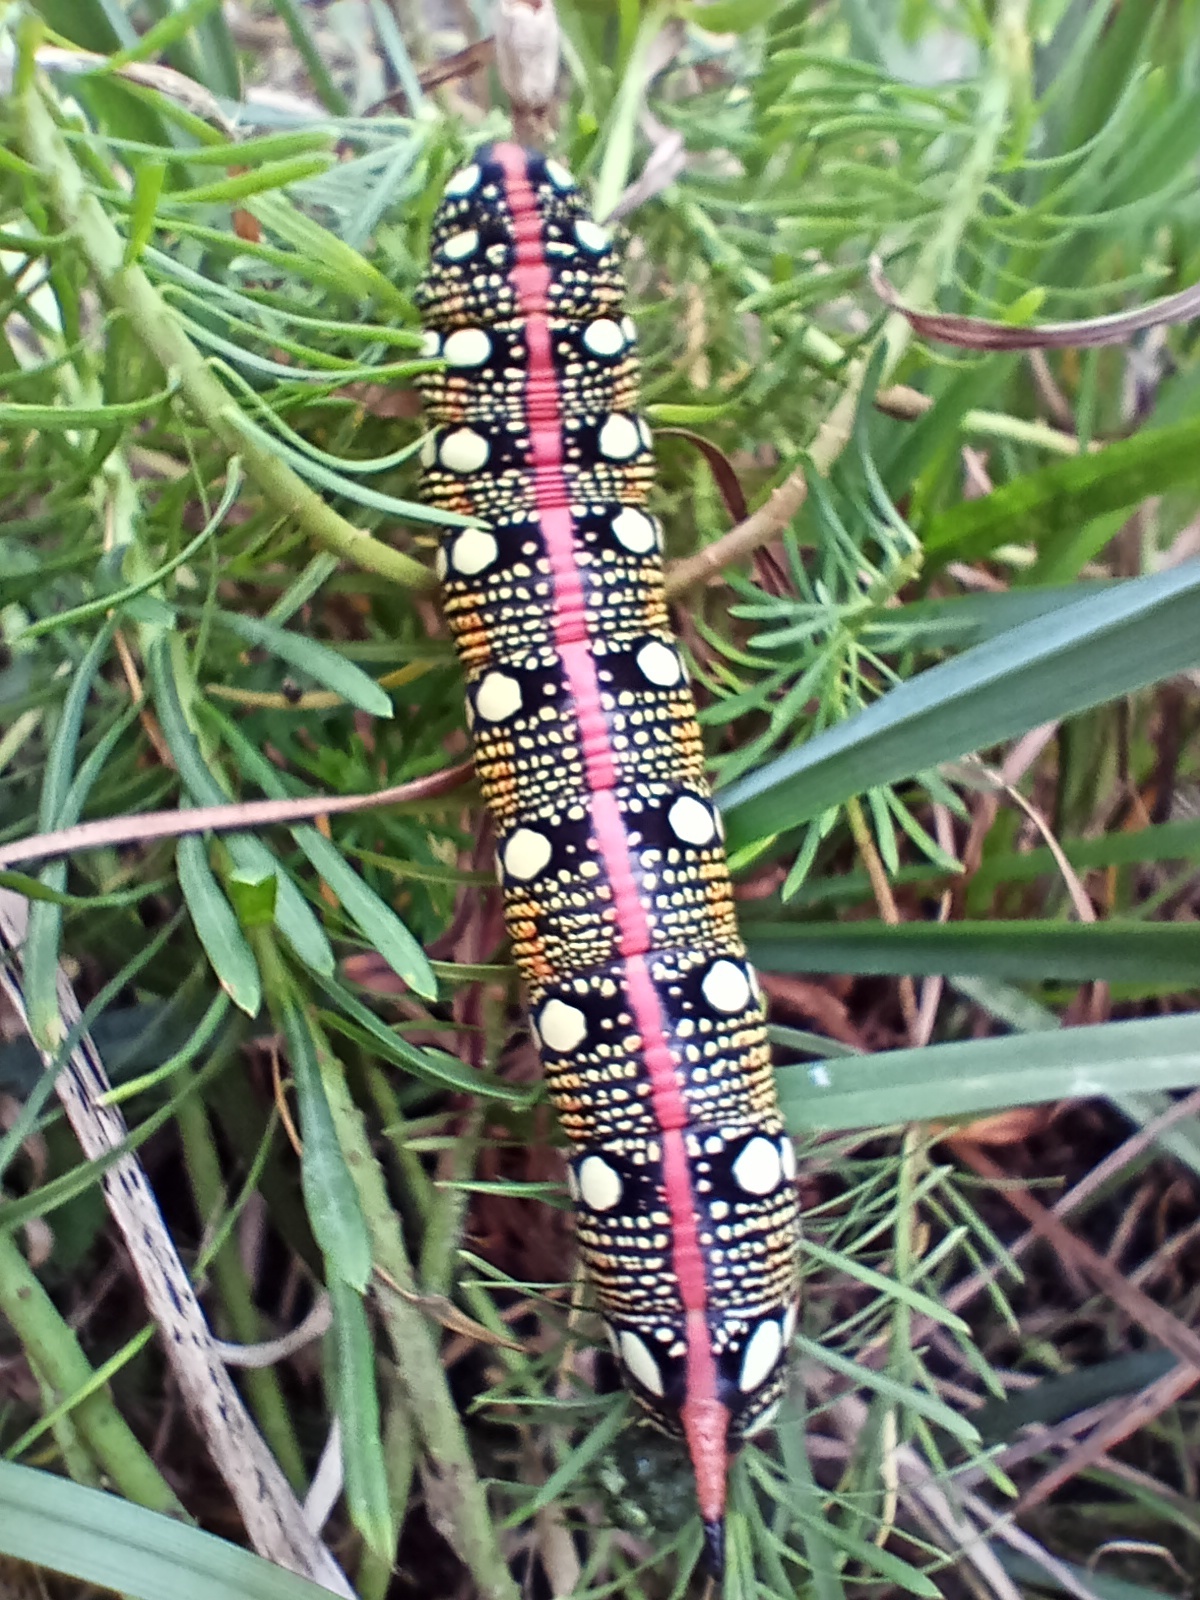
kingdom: Animalia
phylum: Arthropoda
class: Insecta
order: Lepidoptera
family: Sphingidae
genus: Hyles
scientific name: Hyles euphorbiae
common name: Spurge hawk-moth
